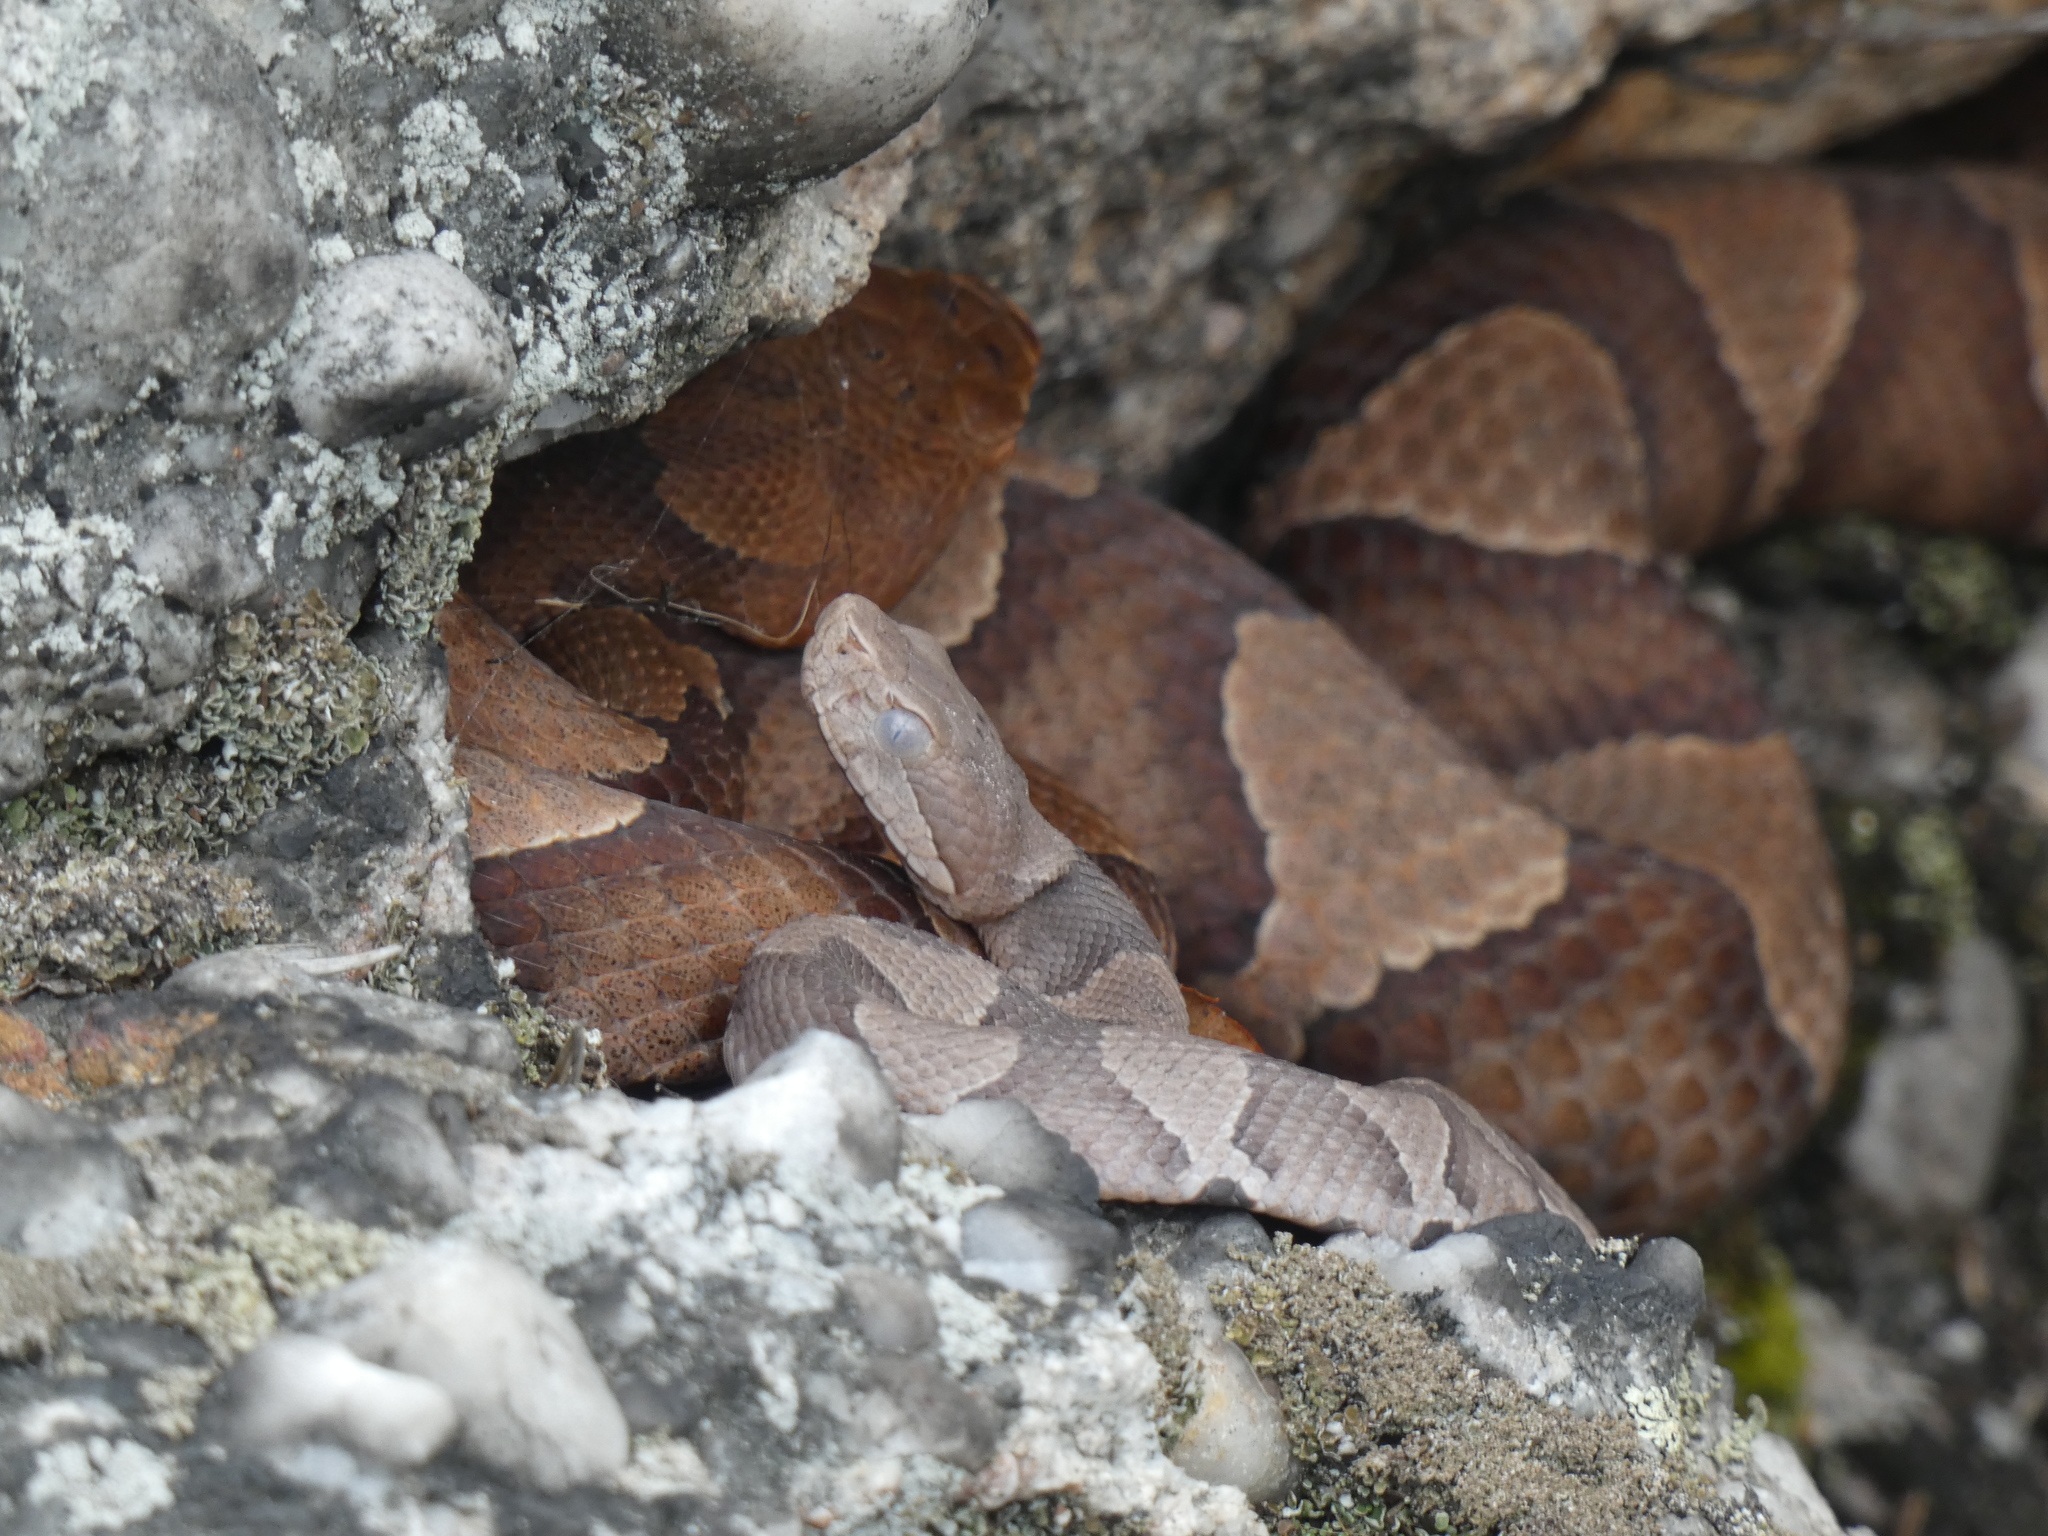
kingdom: Animalia
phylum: Chordata
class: Squamata
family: Viperidae
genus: Agkistrodon
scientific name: Agkistrodon contortrix
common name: Northern copperhead
